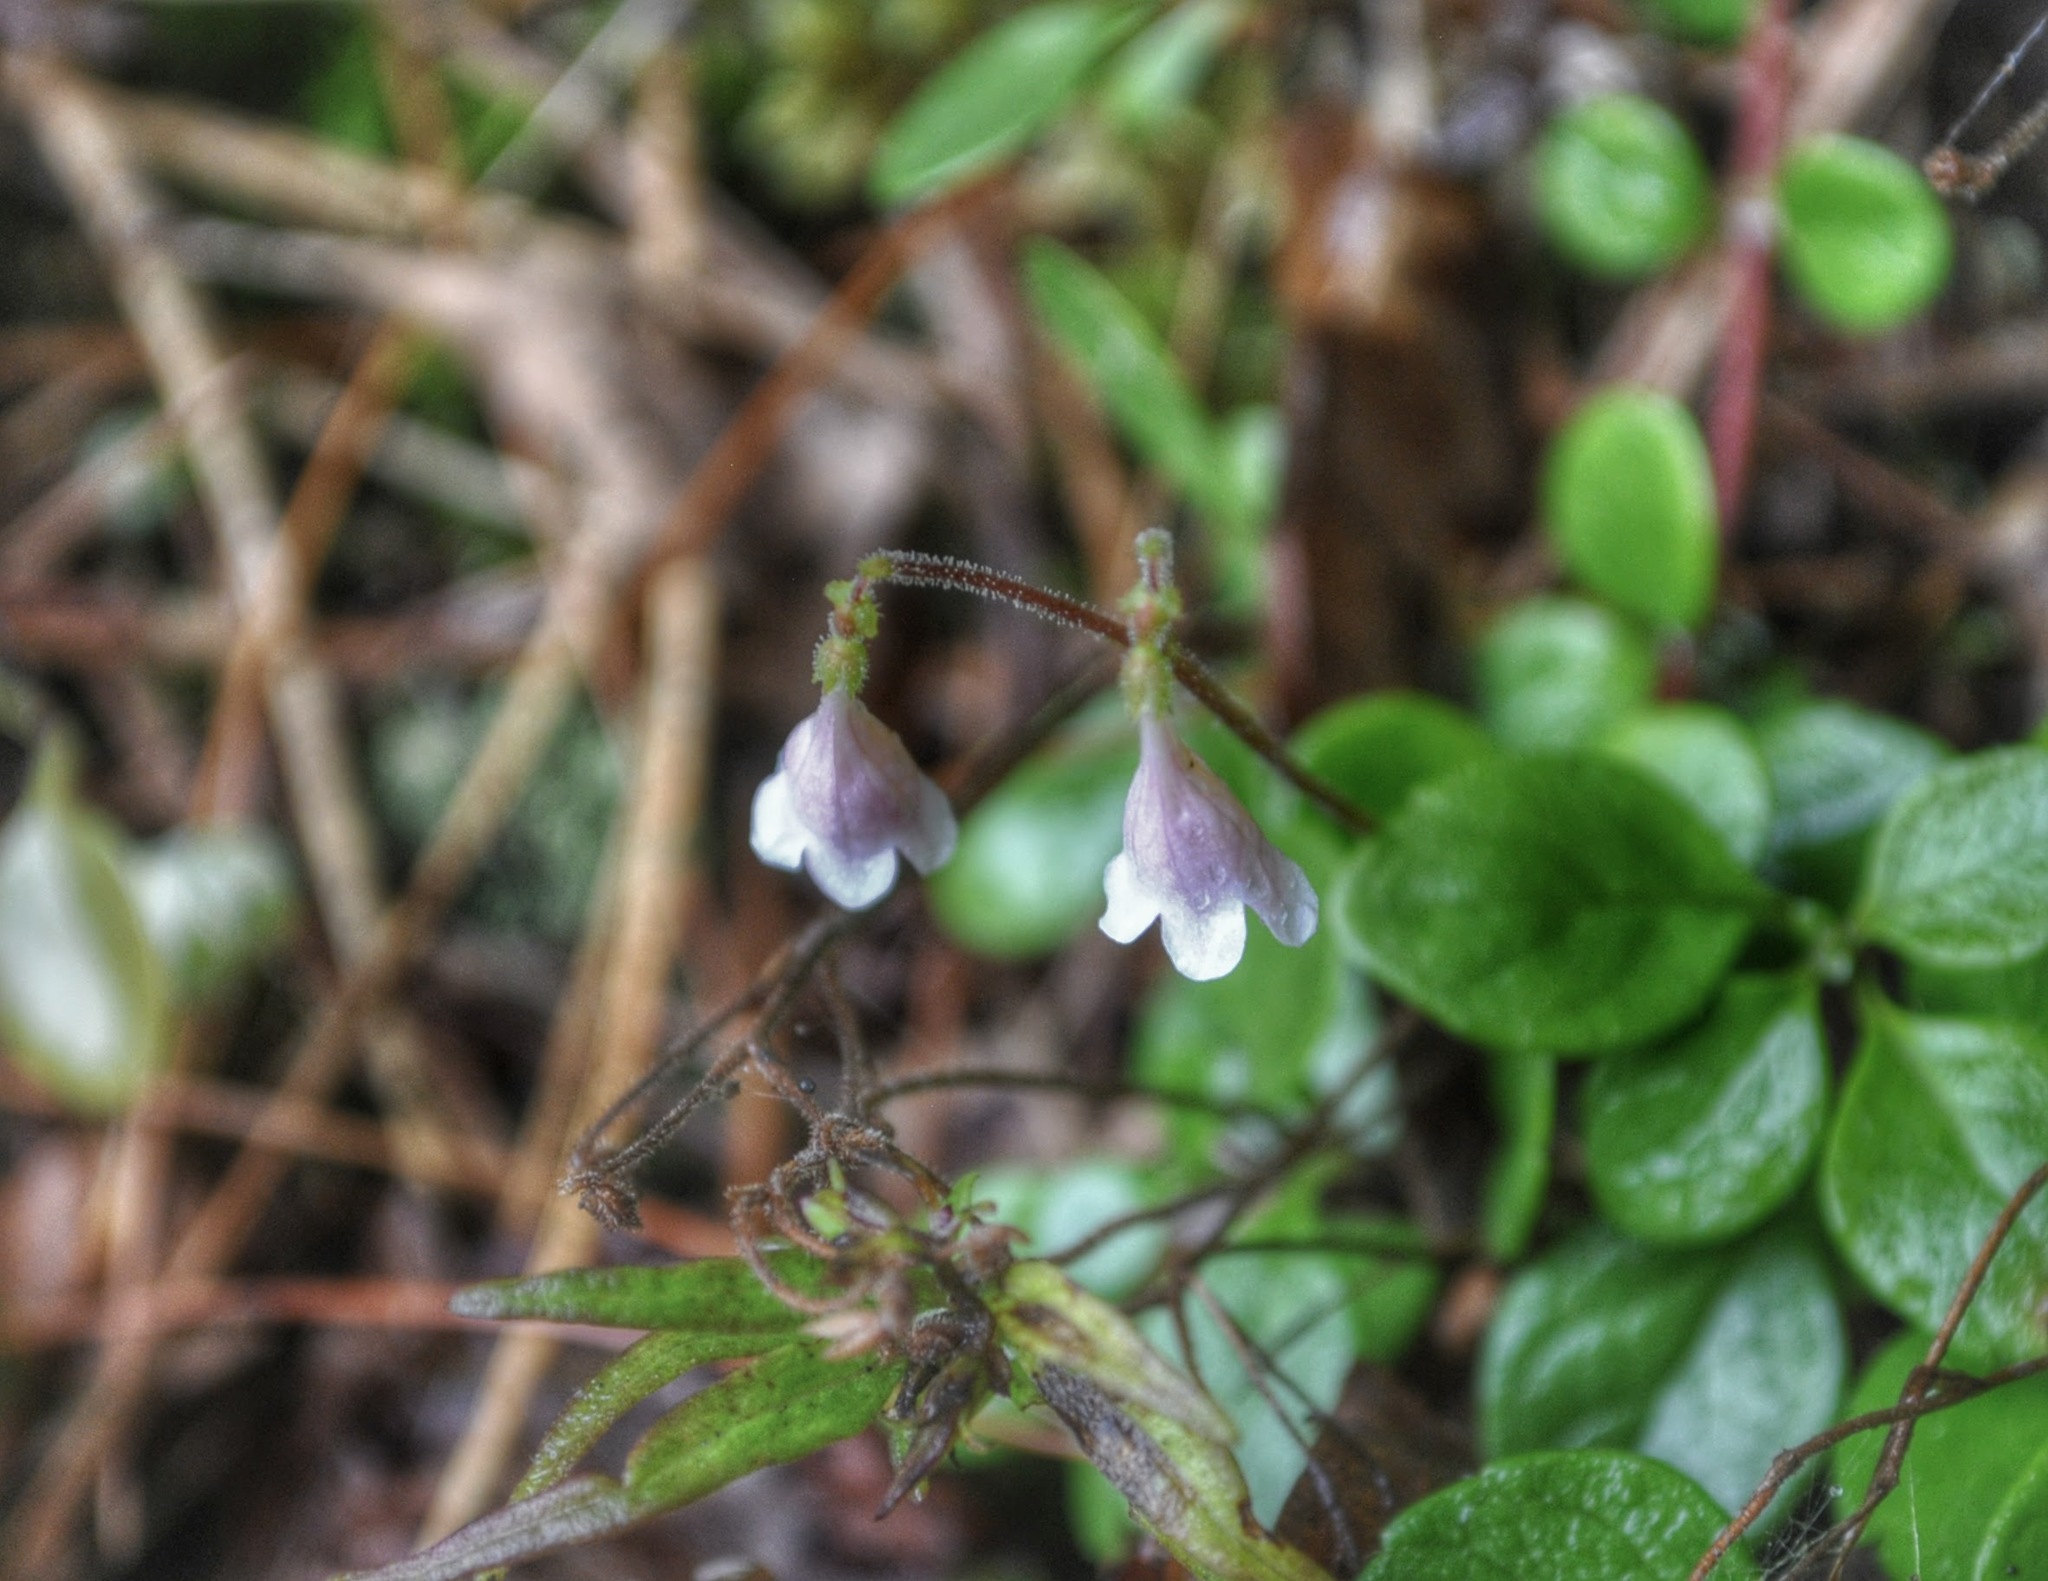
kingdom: Plantae
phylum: Tracheophyta
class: Magnoliopsida
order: Dipsacales
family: Caprifoliaceae
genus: Linnaea
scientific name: Linnaea borealis
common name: Twinflower
